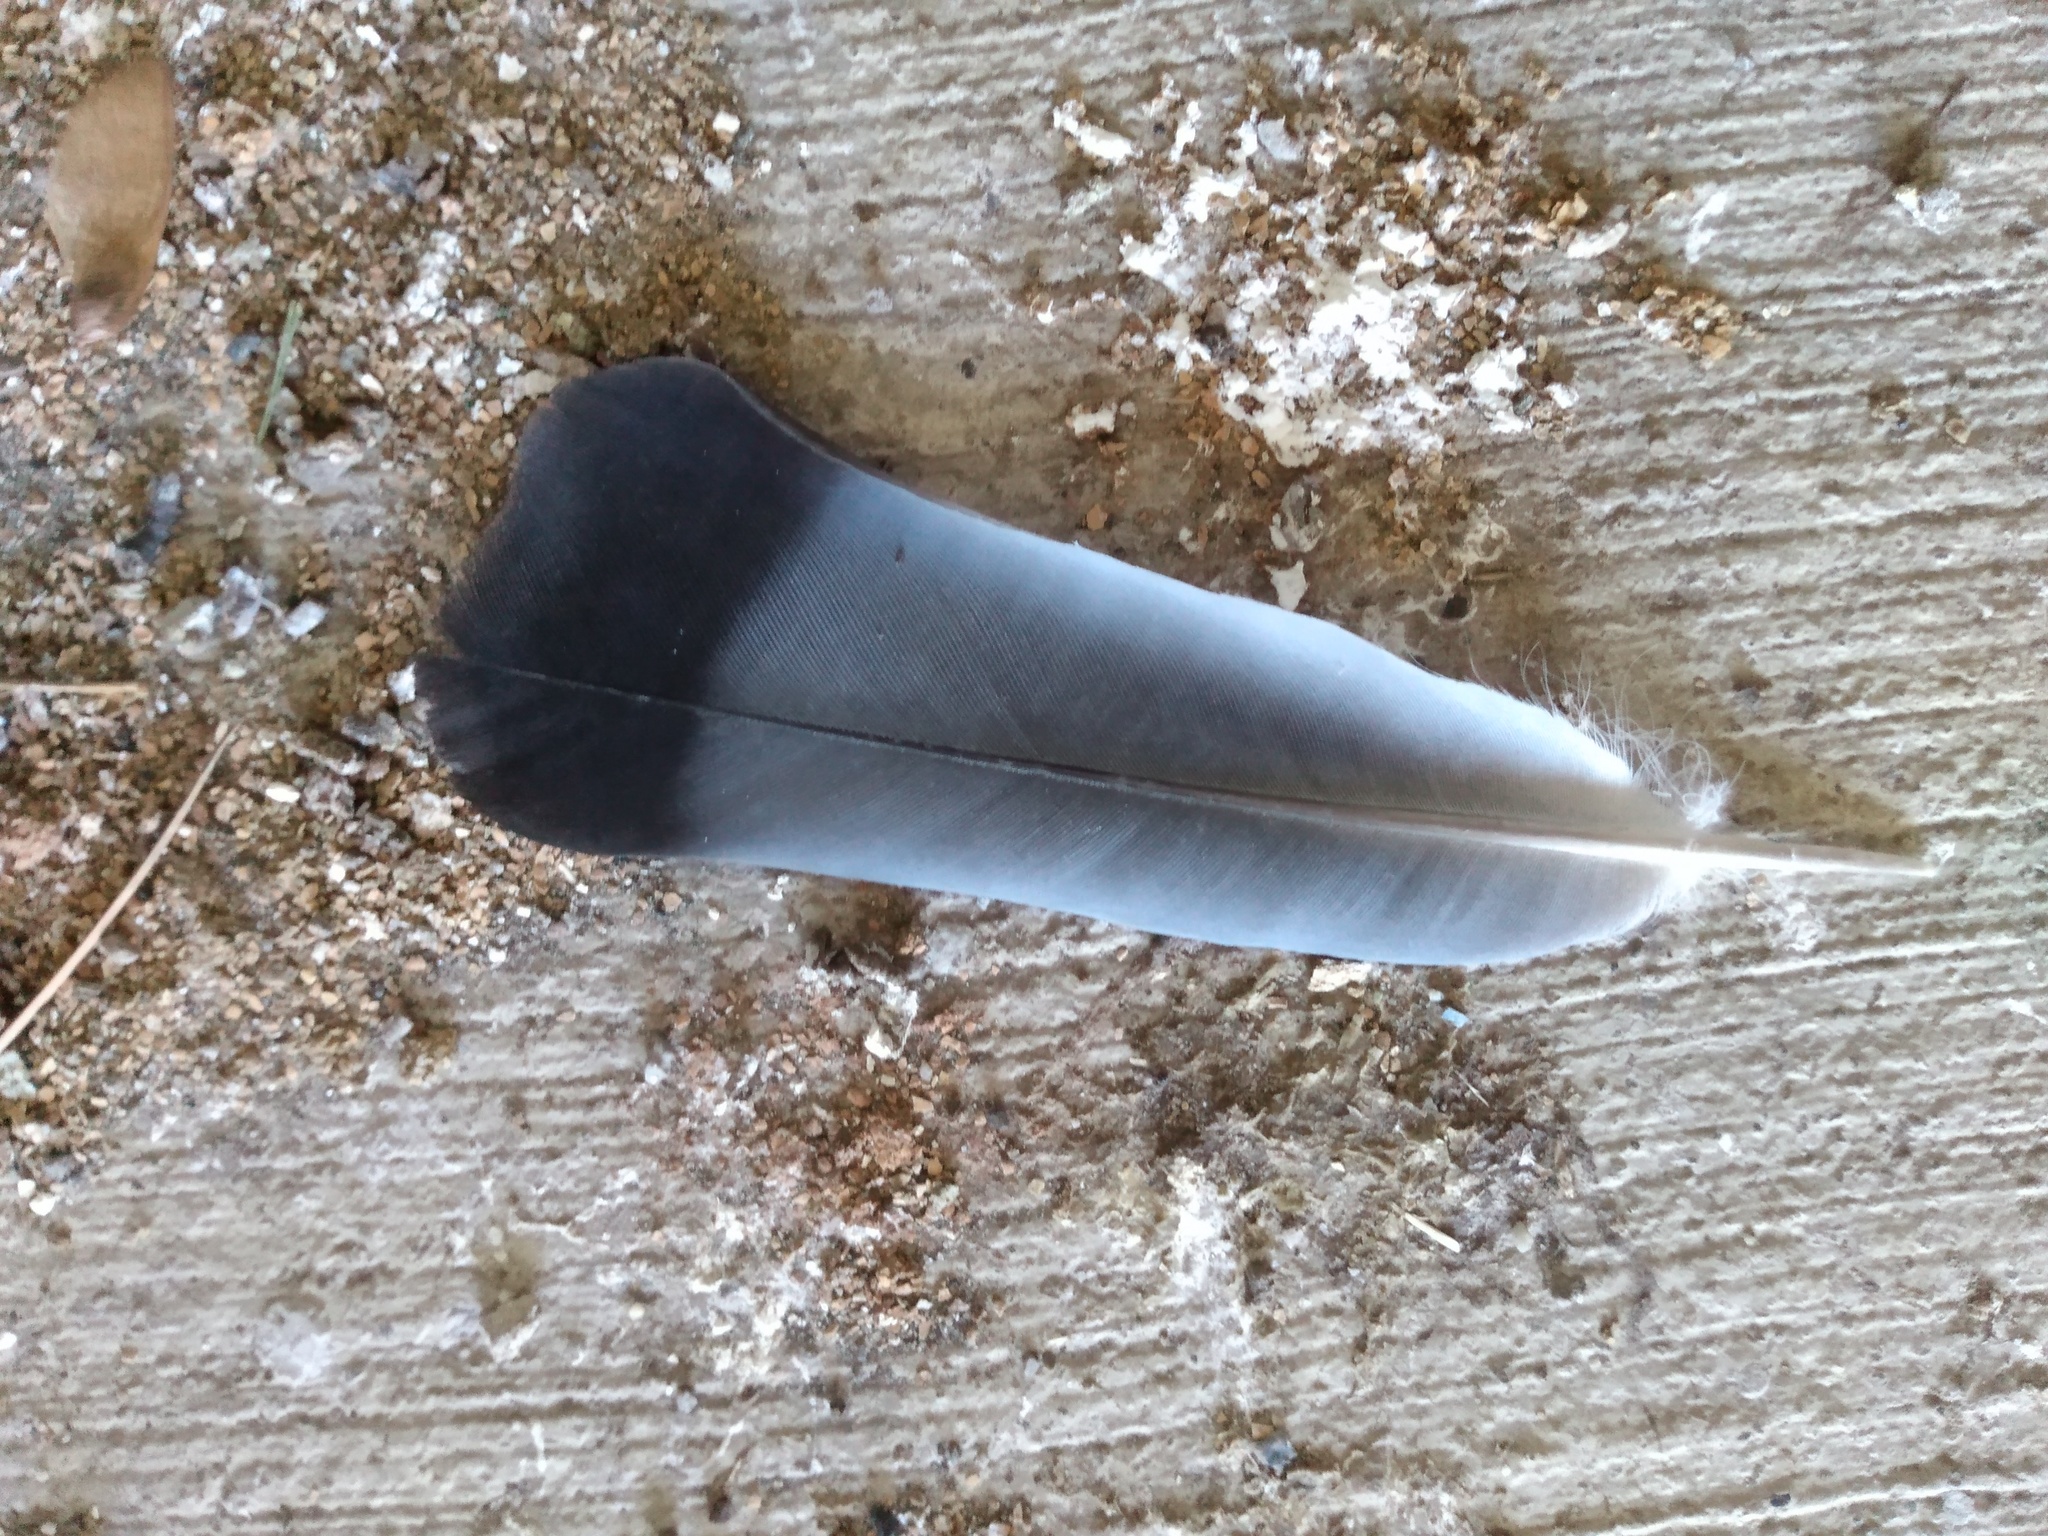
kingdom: Animalia
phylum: Chordata
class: Aves
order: Columbiformes
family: Columbidae
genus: Columba
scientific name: Columba livia
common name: Rock pigeon
